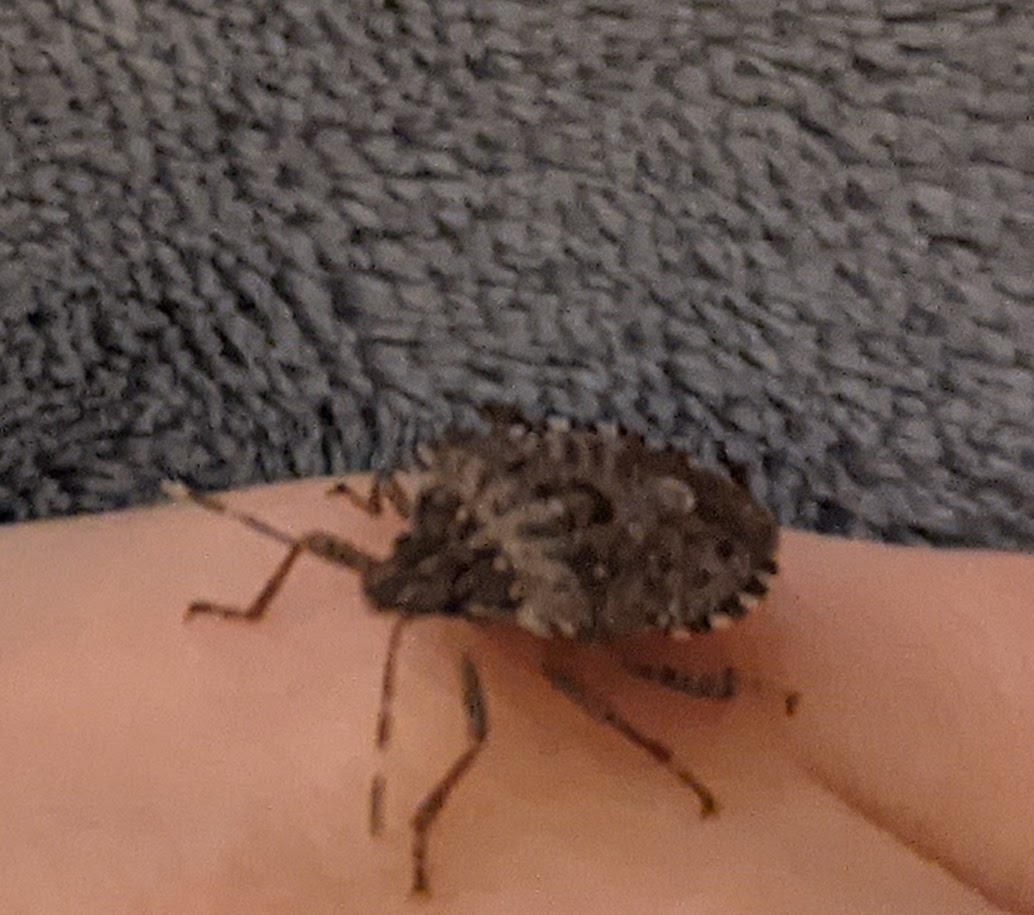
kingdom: Animalia
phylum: Arthropoda
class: Insecta
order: Hemiptera
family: Pentatomidae
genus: Halyomorpha
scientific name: Halyomorpha halys
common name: Brown marmorated stink bug
